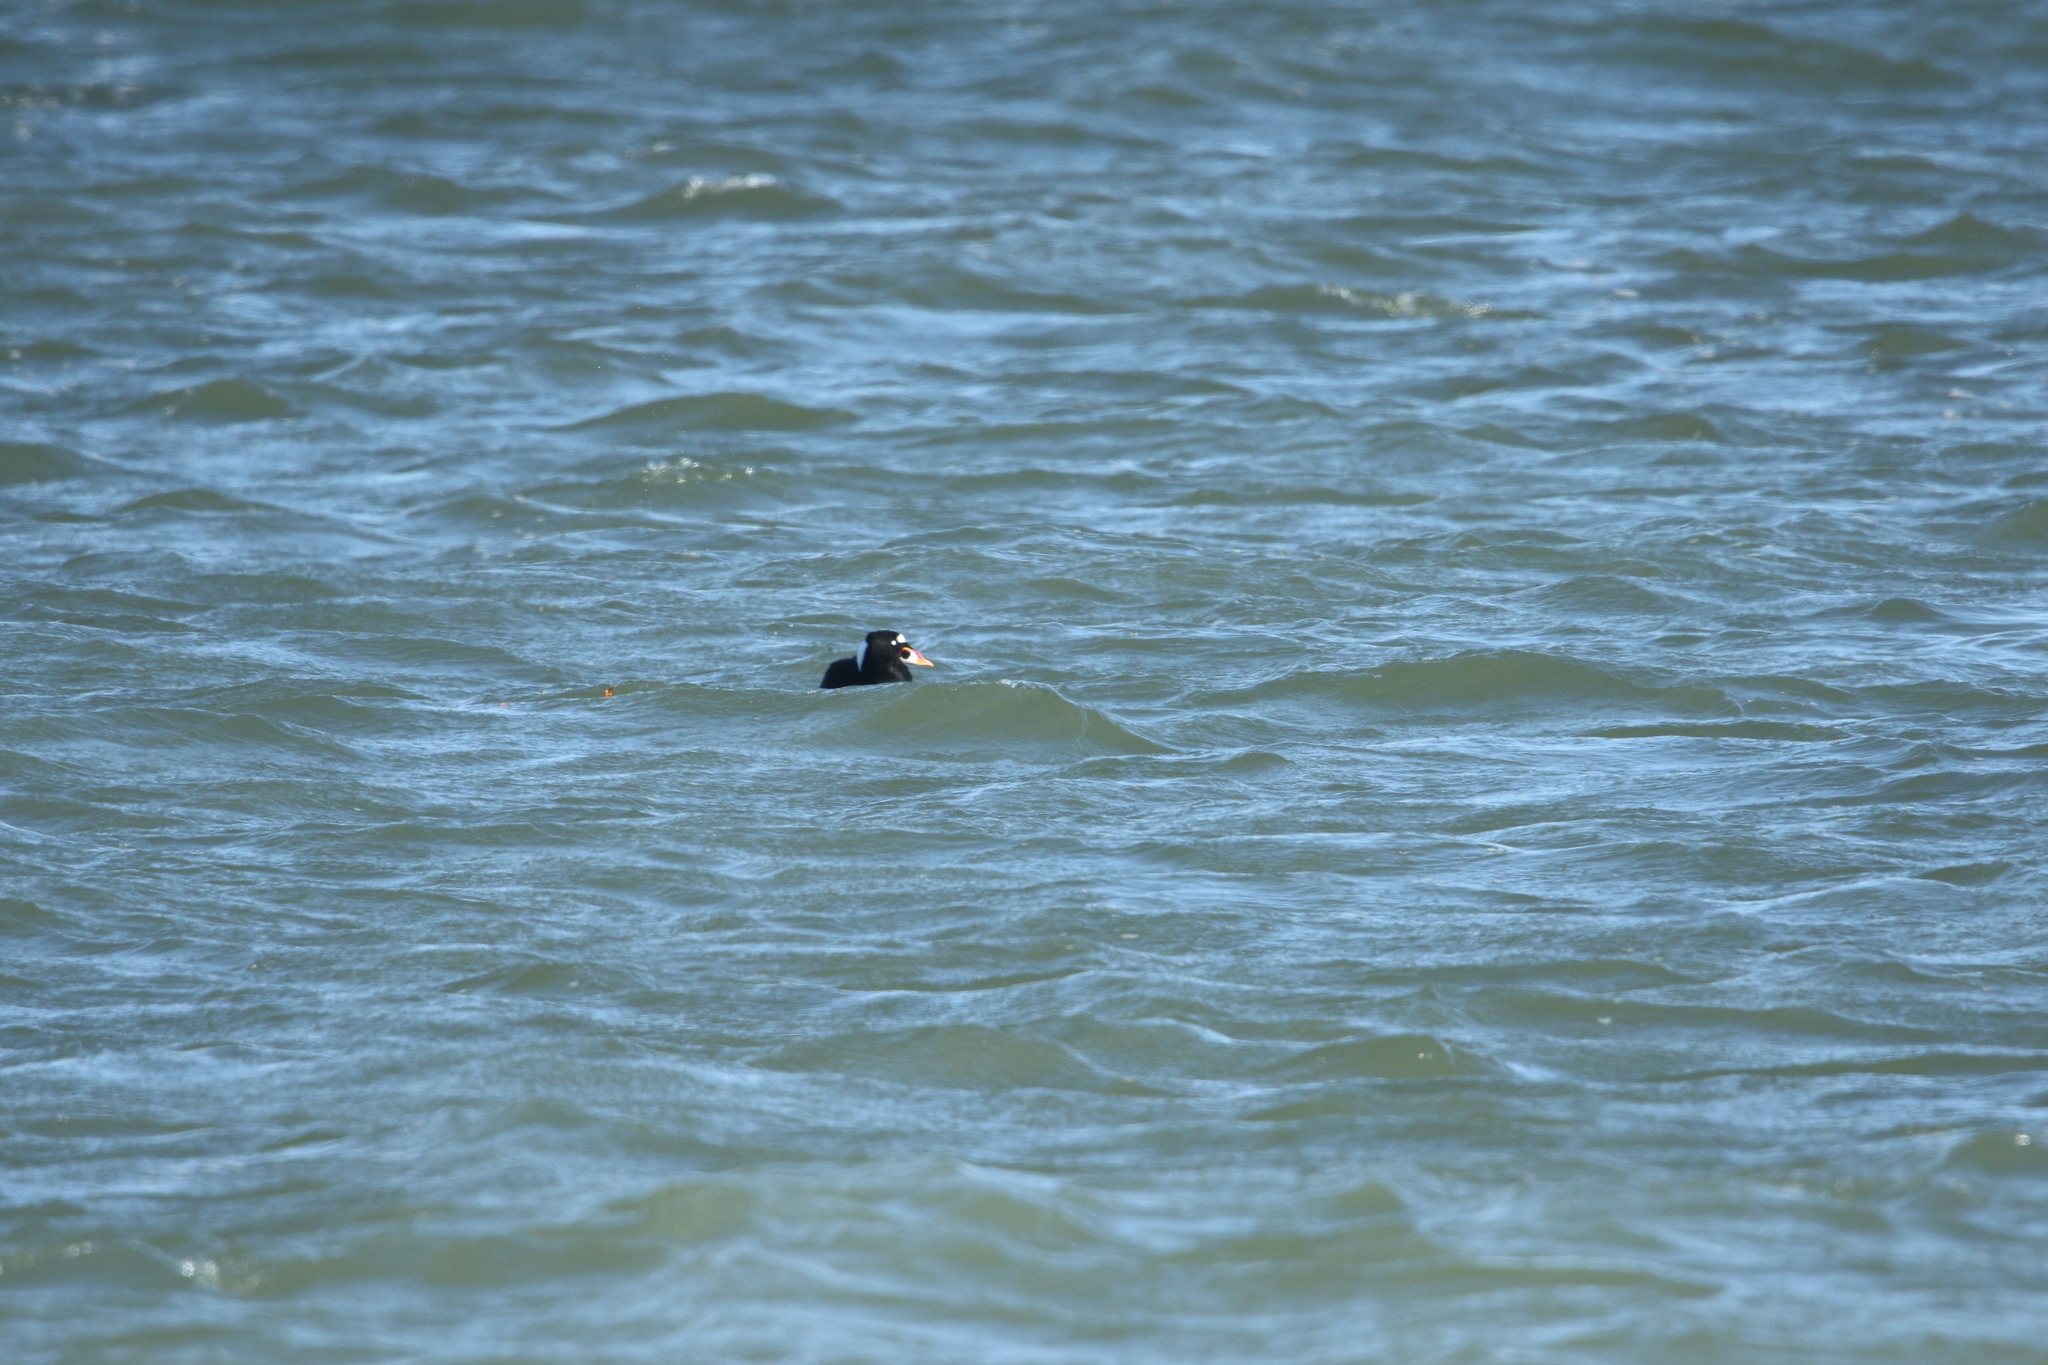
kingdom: Animalia
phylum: Chordata
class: Aves
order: Anseriformes
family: Anatidae
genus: Melanitta
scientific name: Melanitta perspicillata
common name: Surf scoter
